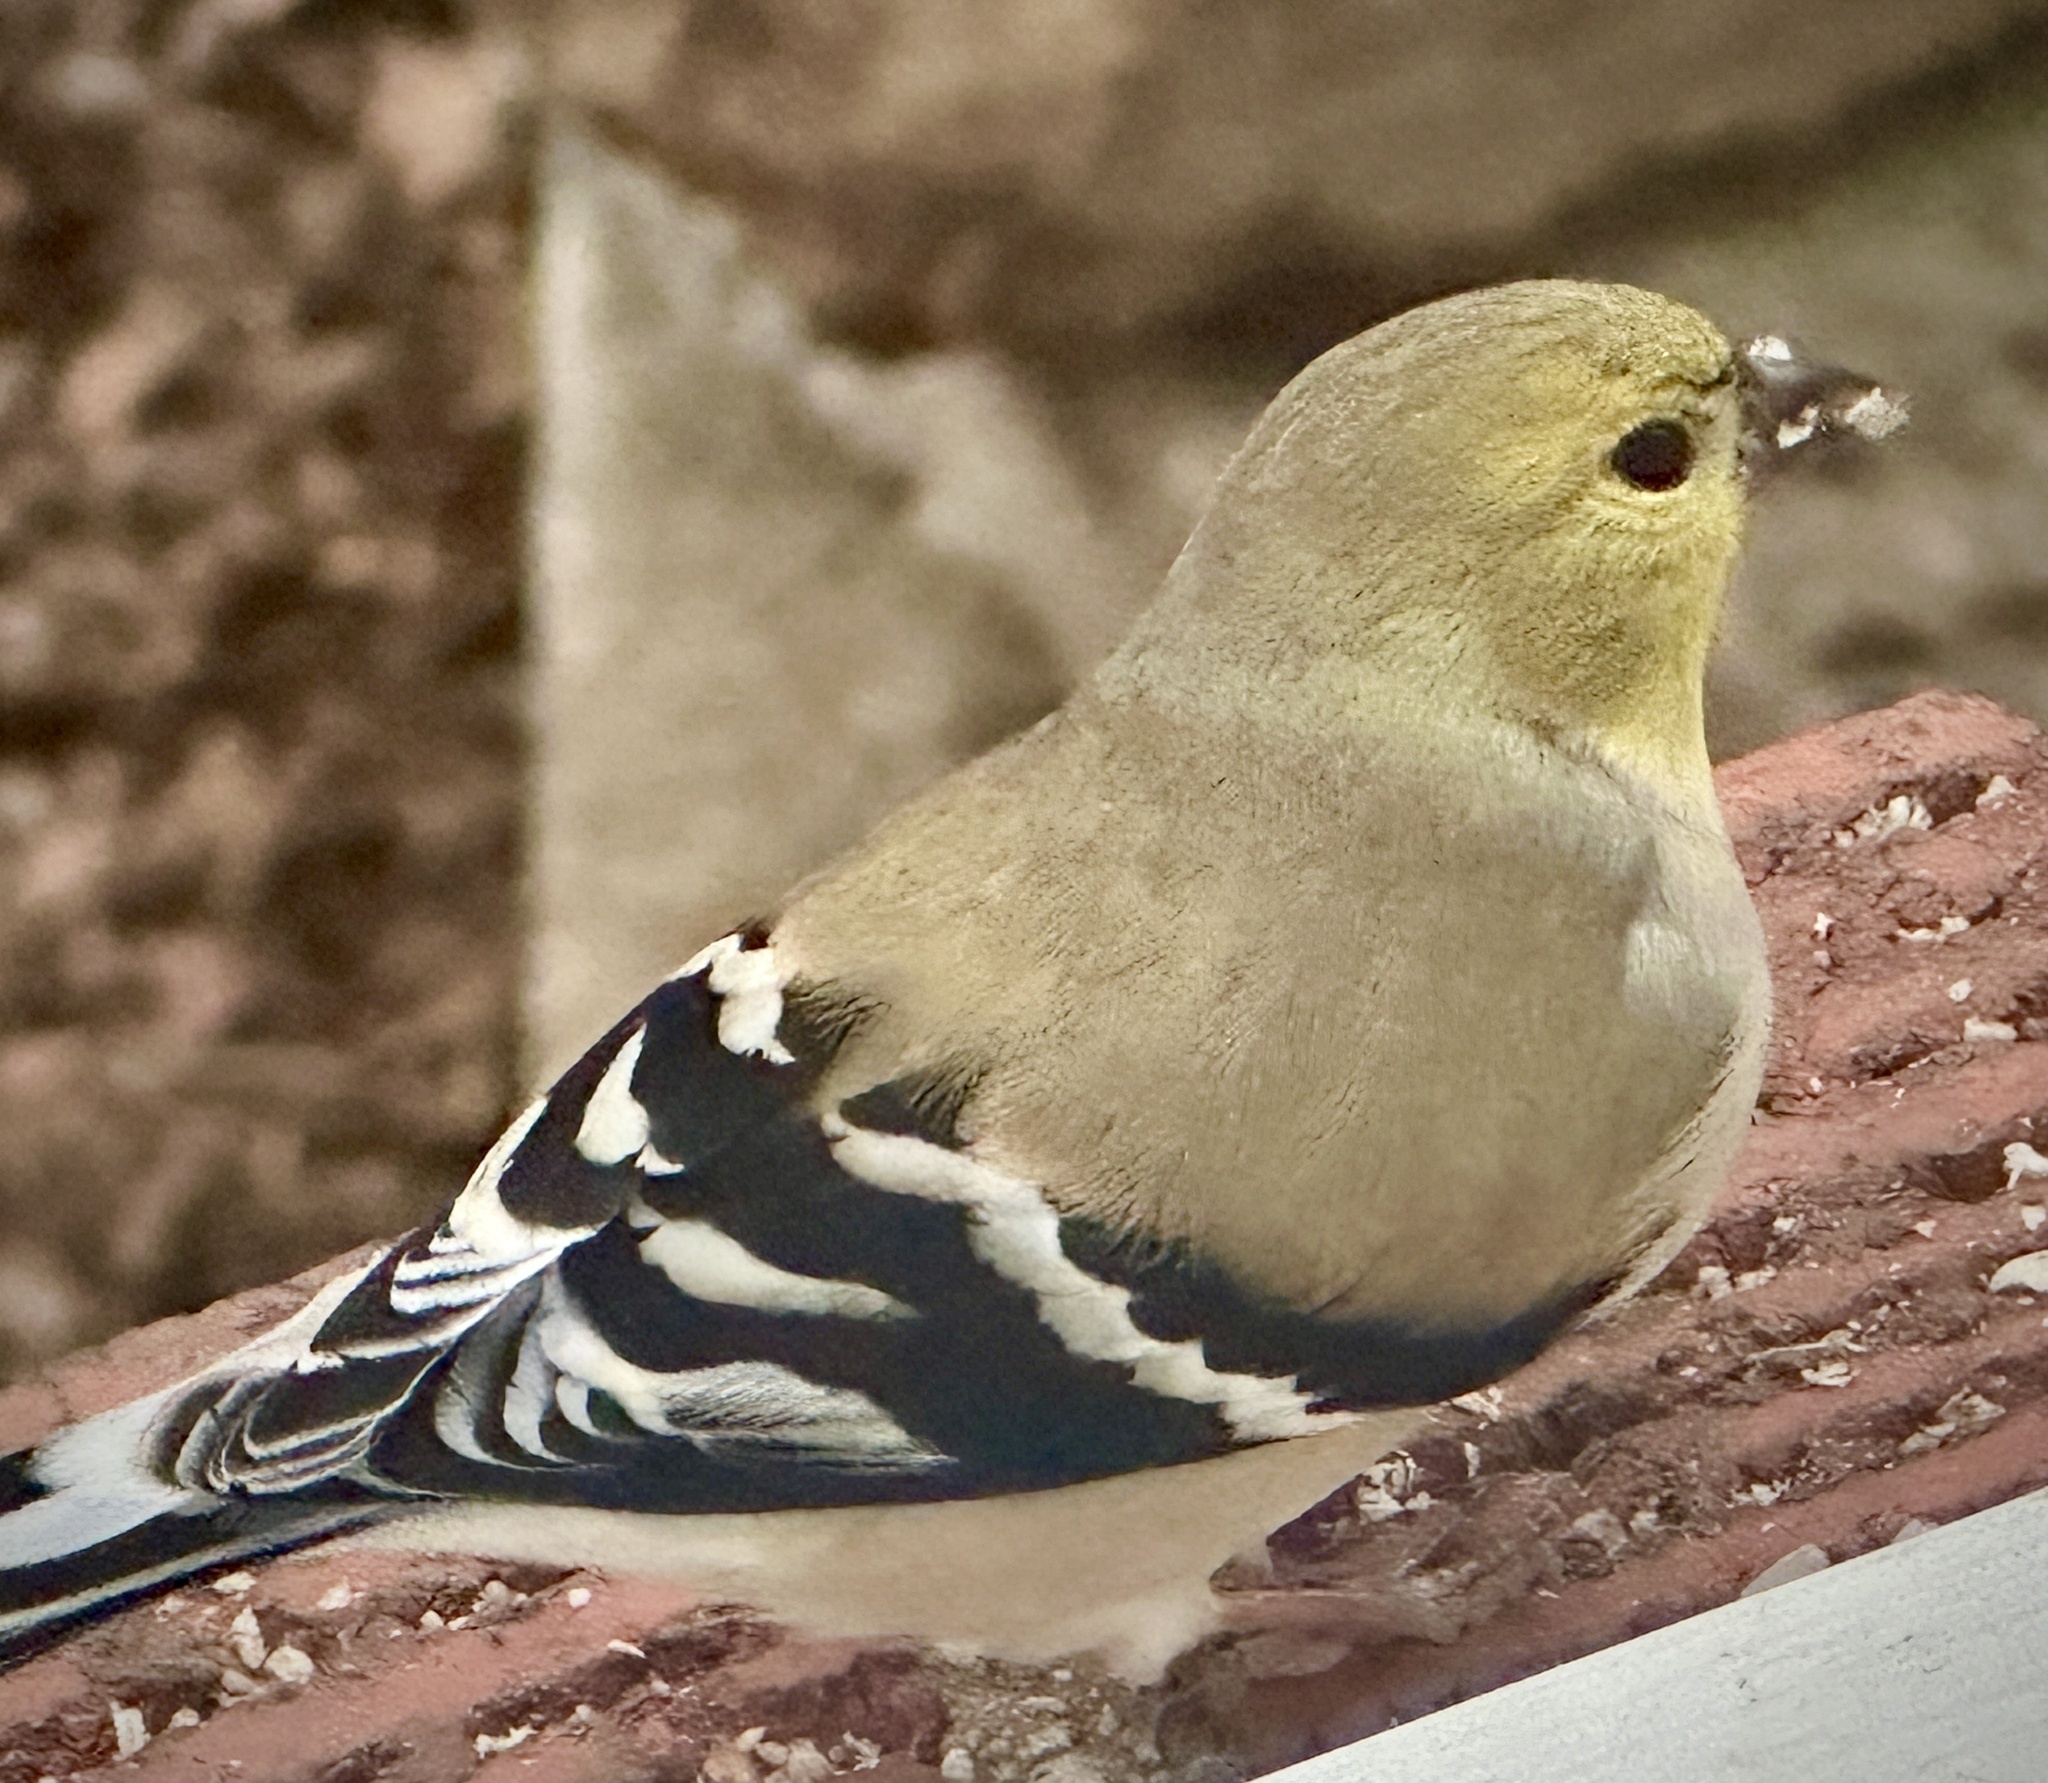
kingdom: Animalia
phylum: Chordata
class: Aves
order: Passeriformes
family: Fringillidae
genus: Spinus
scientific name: Spinus tristis
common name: American goldfinch
